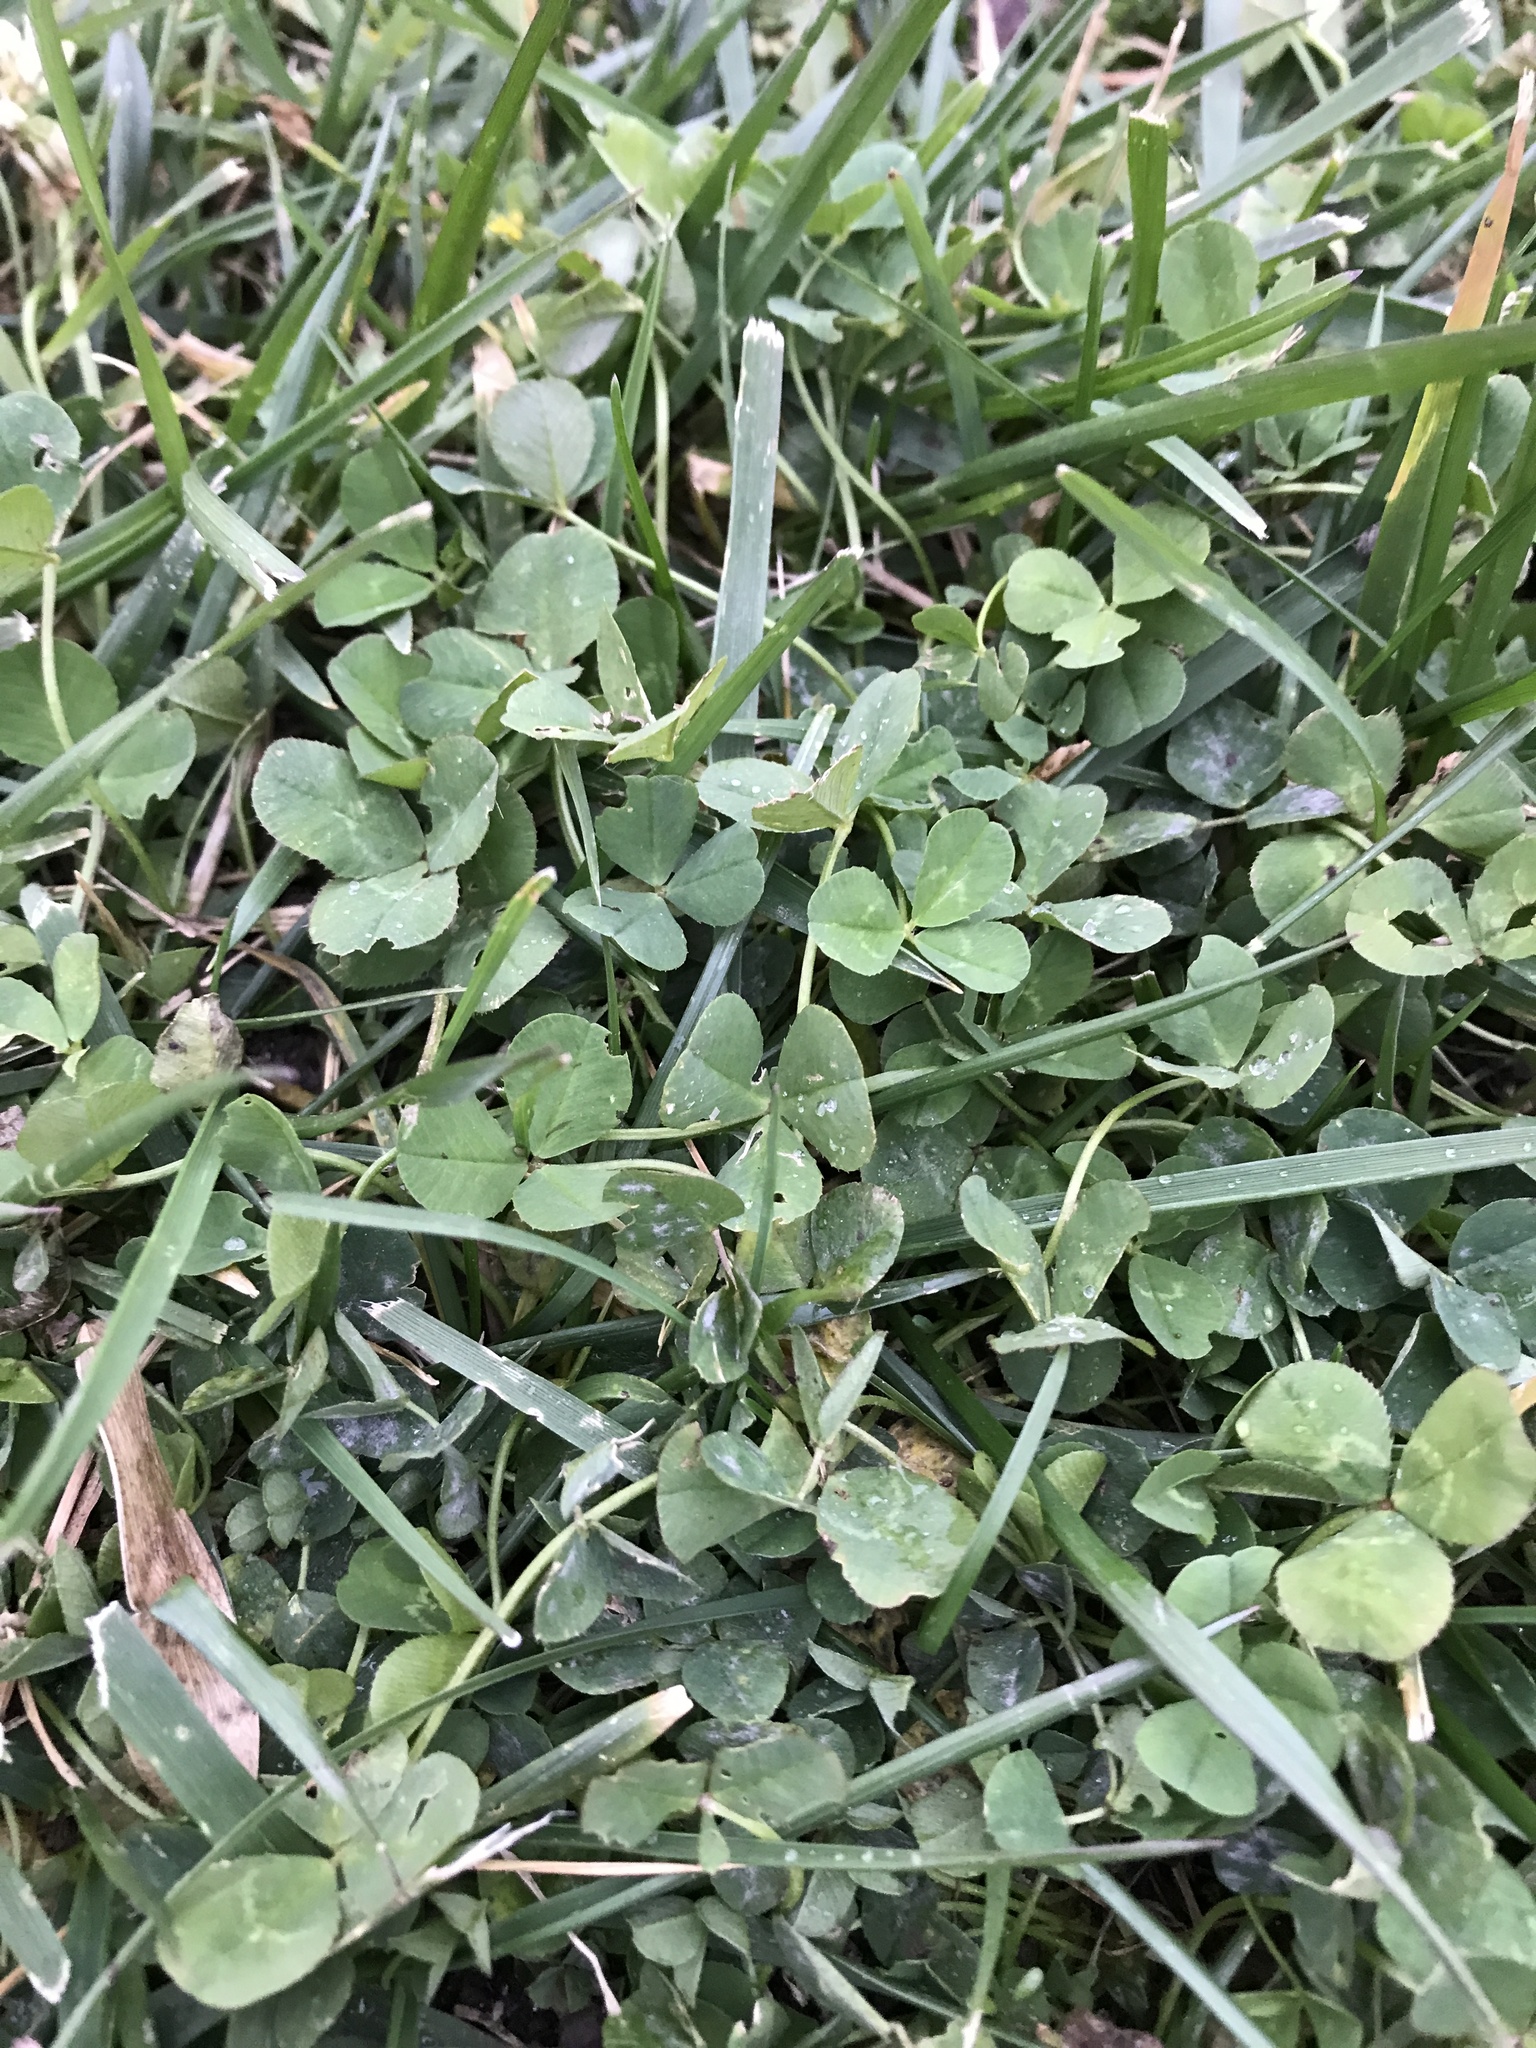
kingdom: Plantae
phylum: Tracheophyta
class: Magnoliopsida
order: Fabales
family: Fabaceae
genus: Trifolium
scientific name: Trifolium repens
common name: White clover
